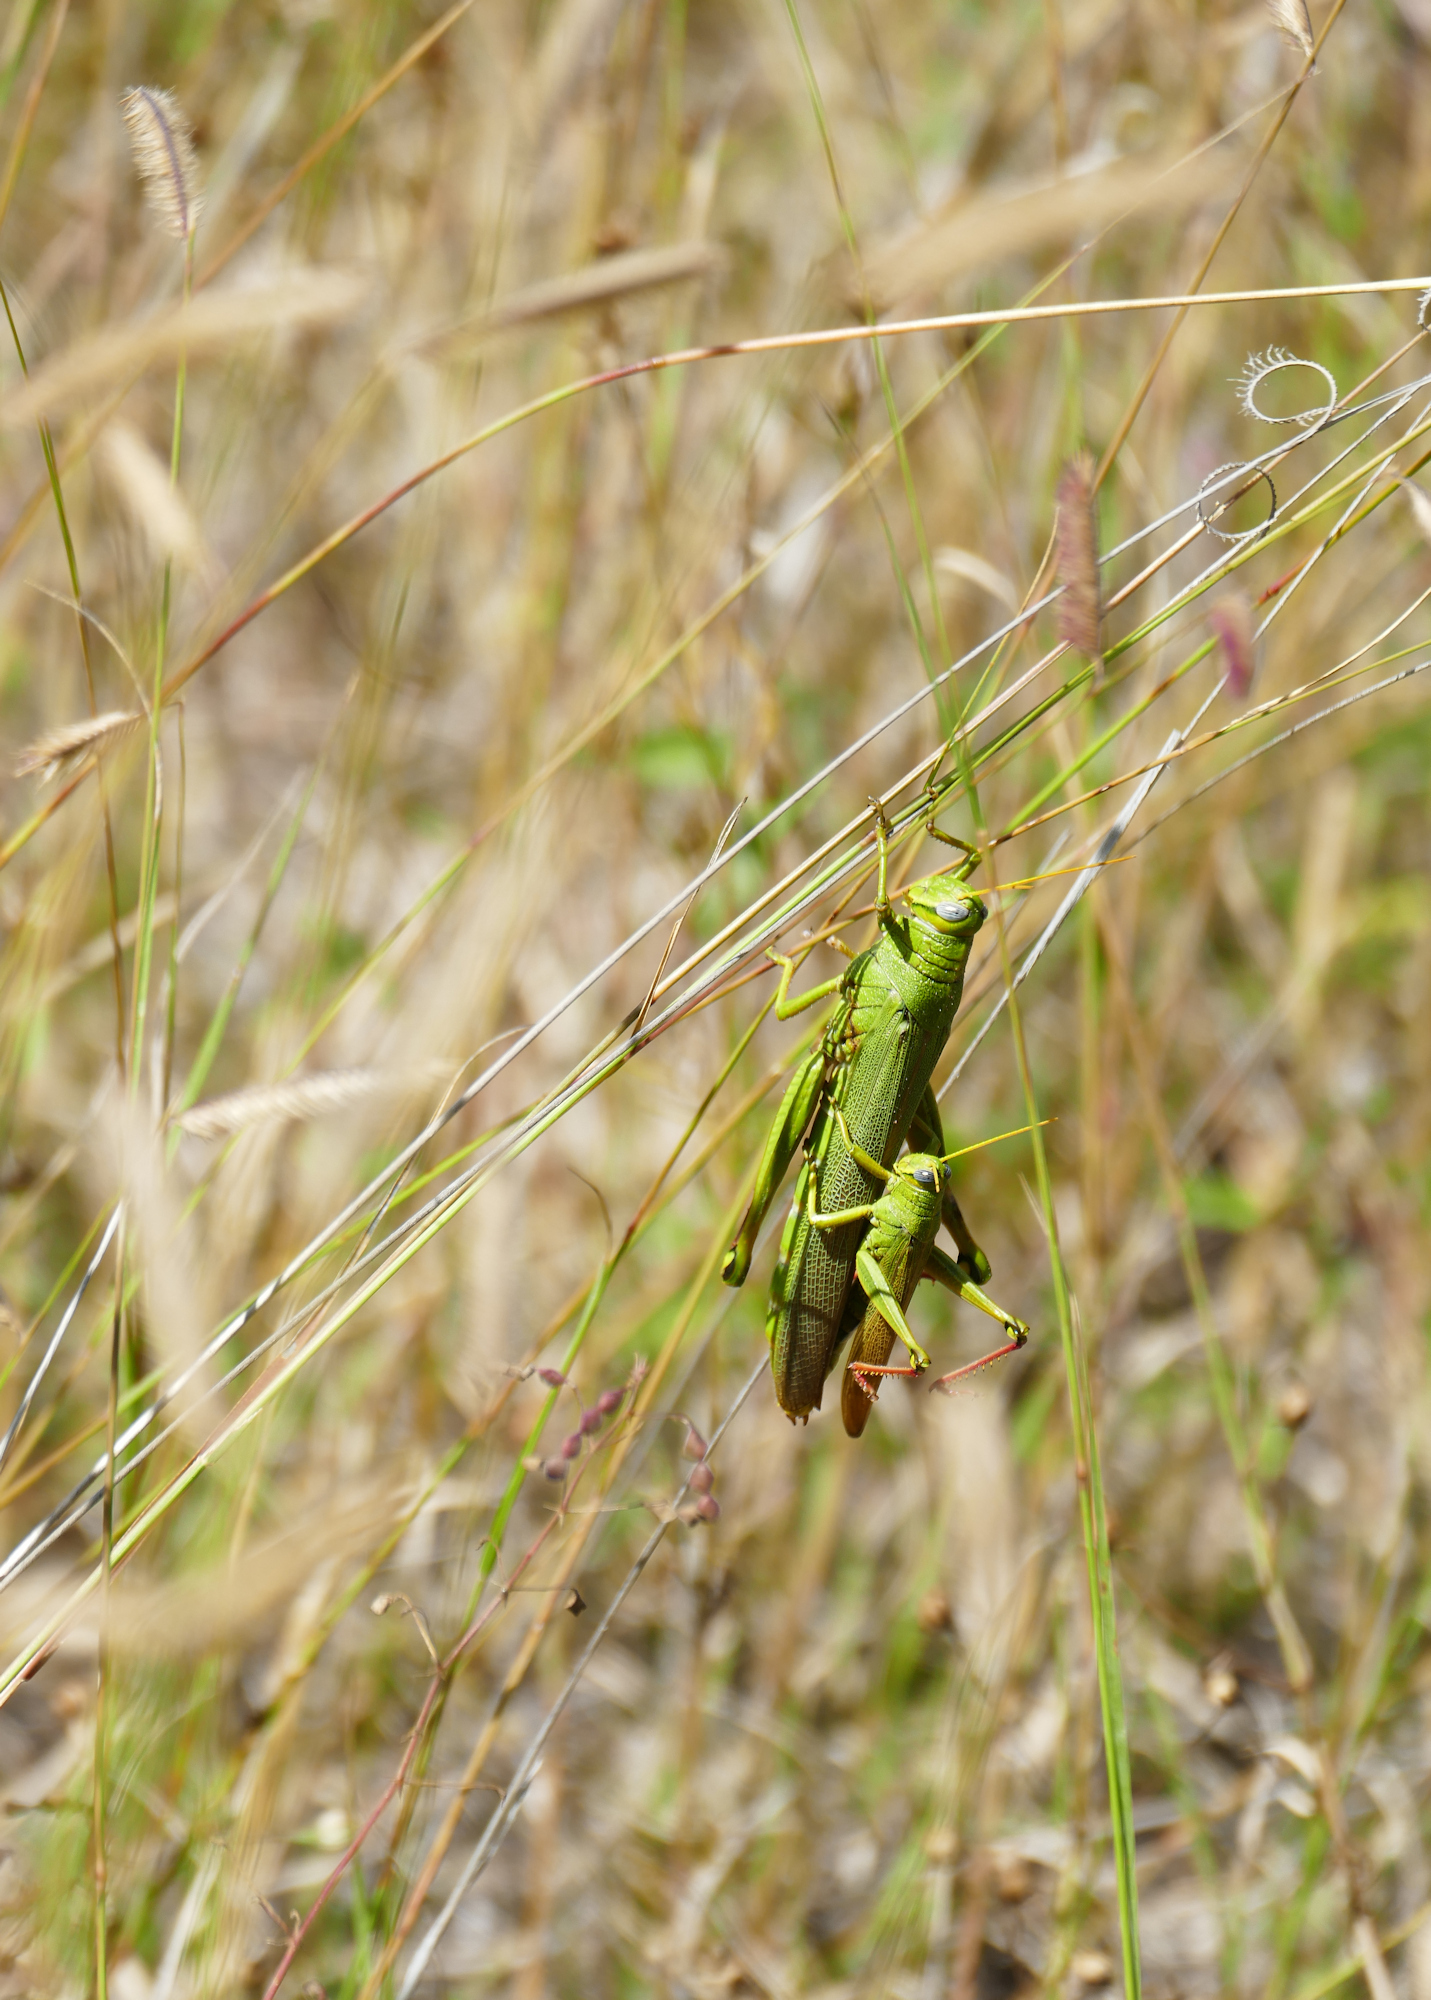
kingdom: Animalia
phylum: Arthropoda
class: Insecta
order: Orthoptera
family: Acrididae
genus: Schistocerca
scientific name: Schistocerca shoshone
